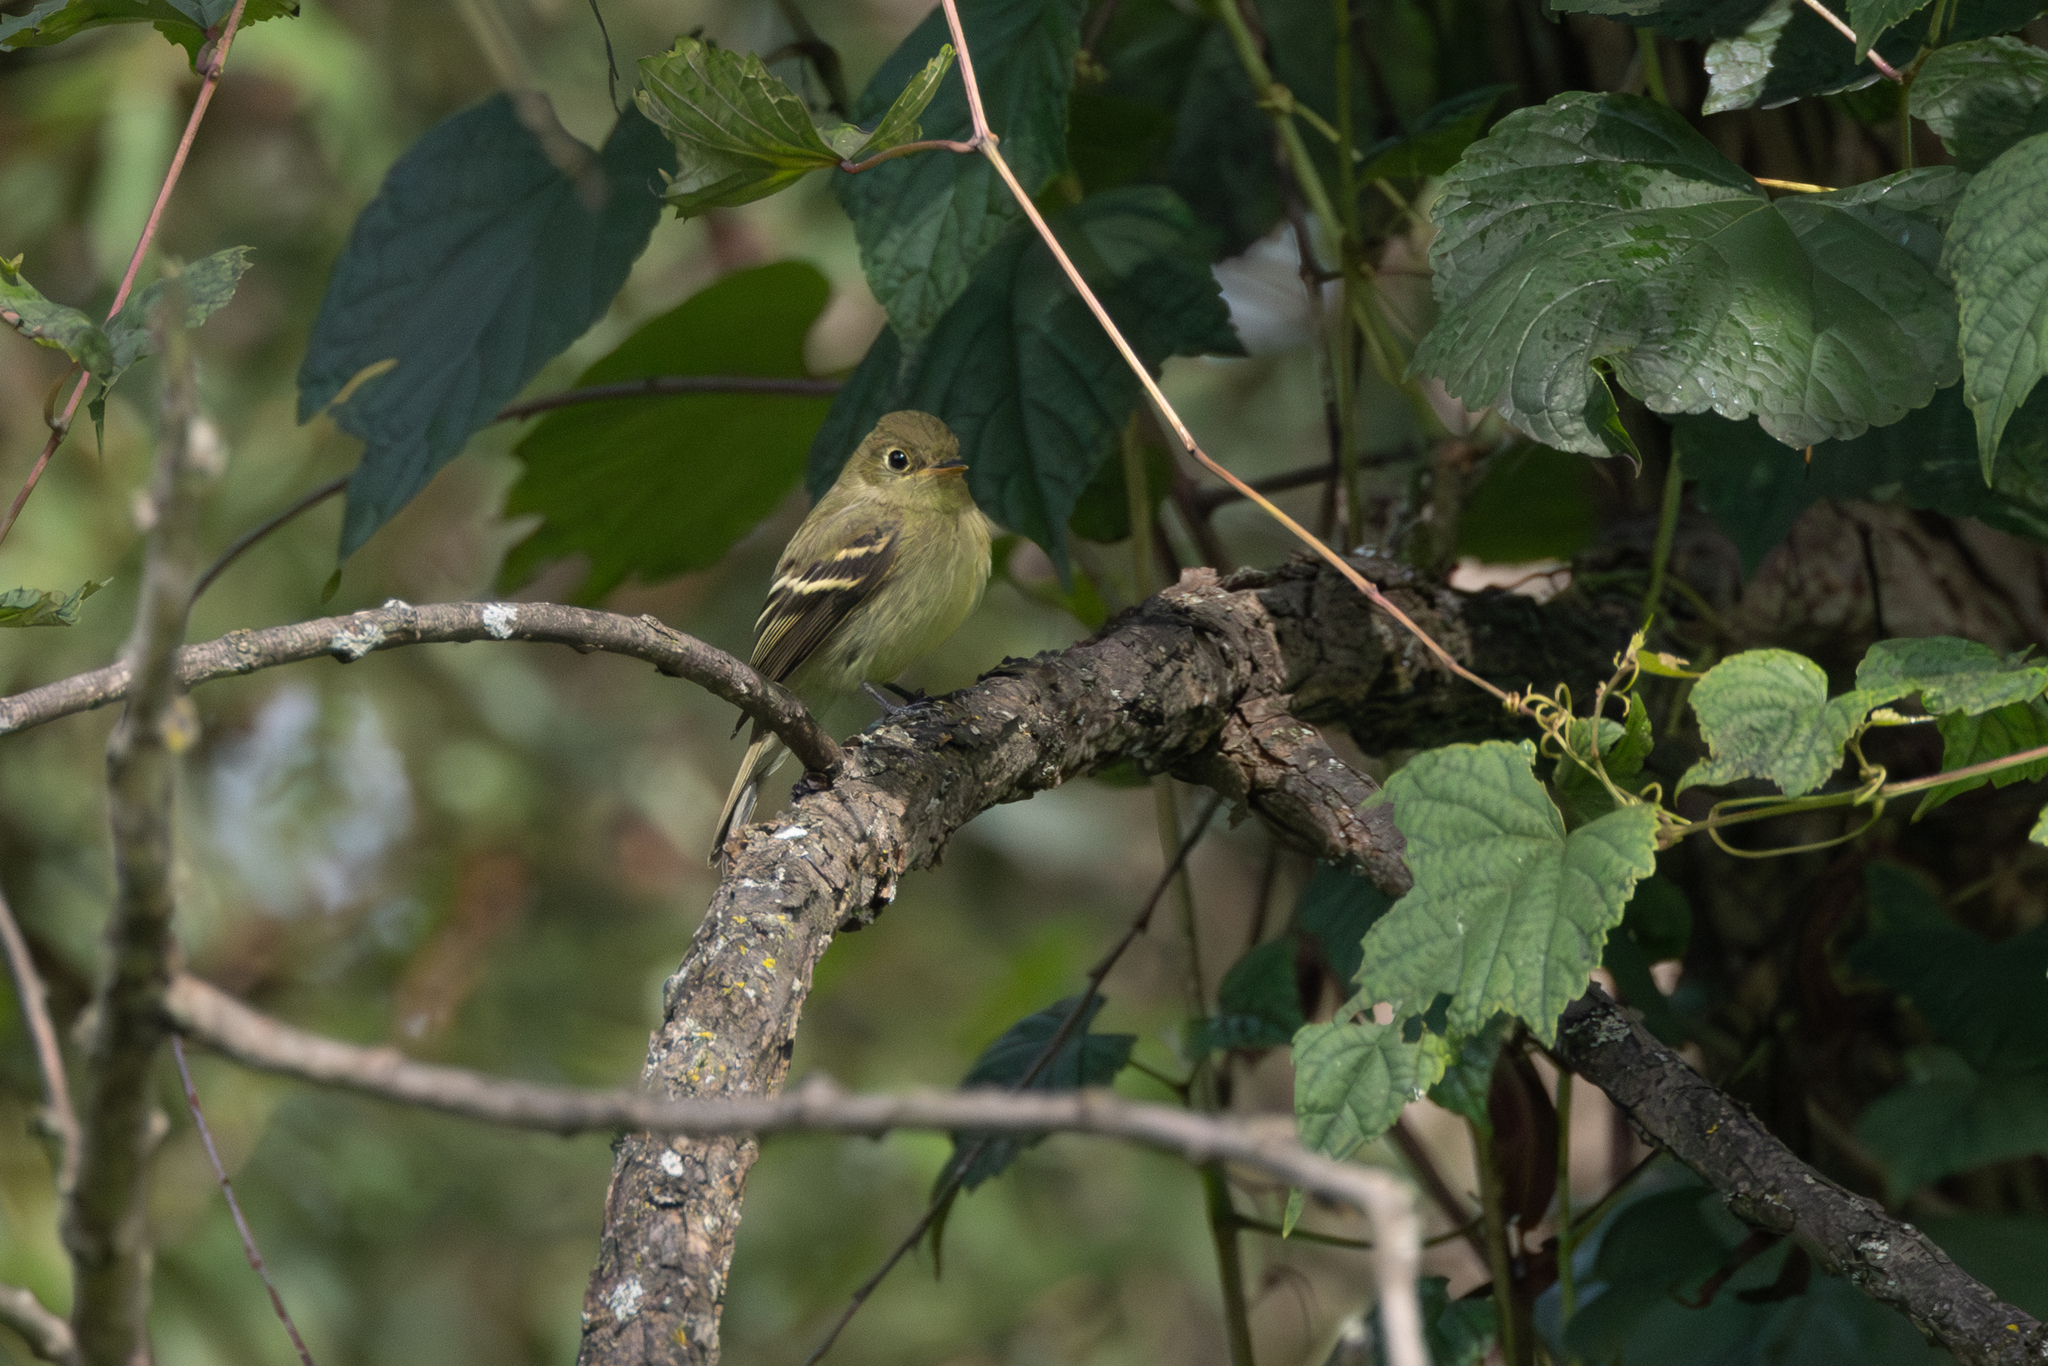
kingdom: Animalia
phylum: Chordata
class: Aves
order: Passeriformes
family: Tyrannidae
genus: Empidonax
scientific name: Empidonax flaviventris
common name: Yellow-bellied flycatcher
